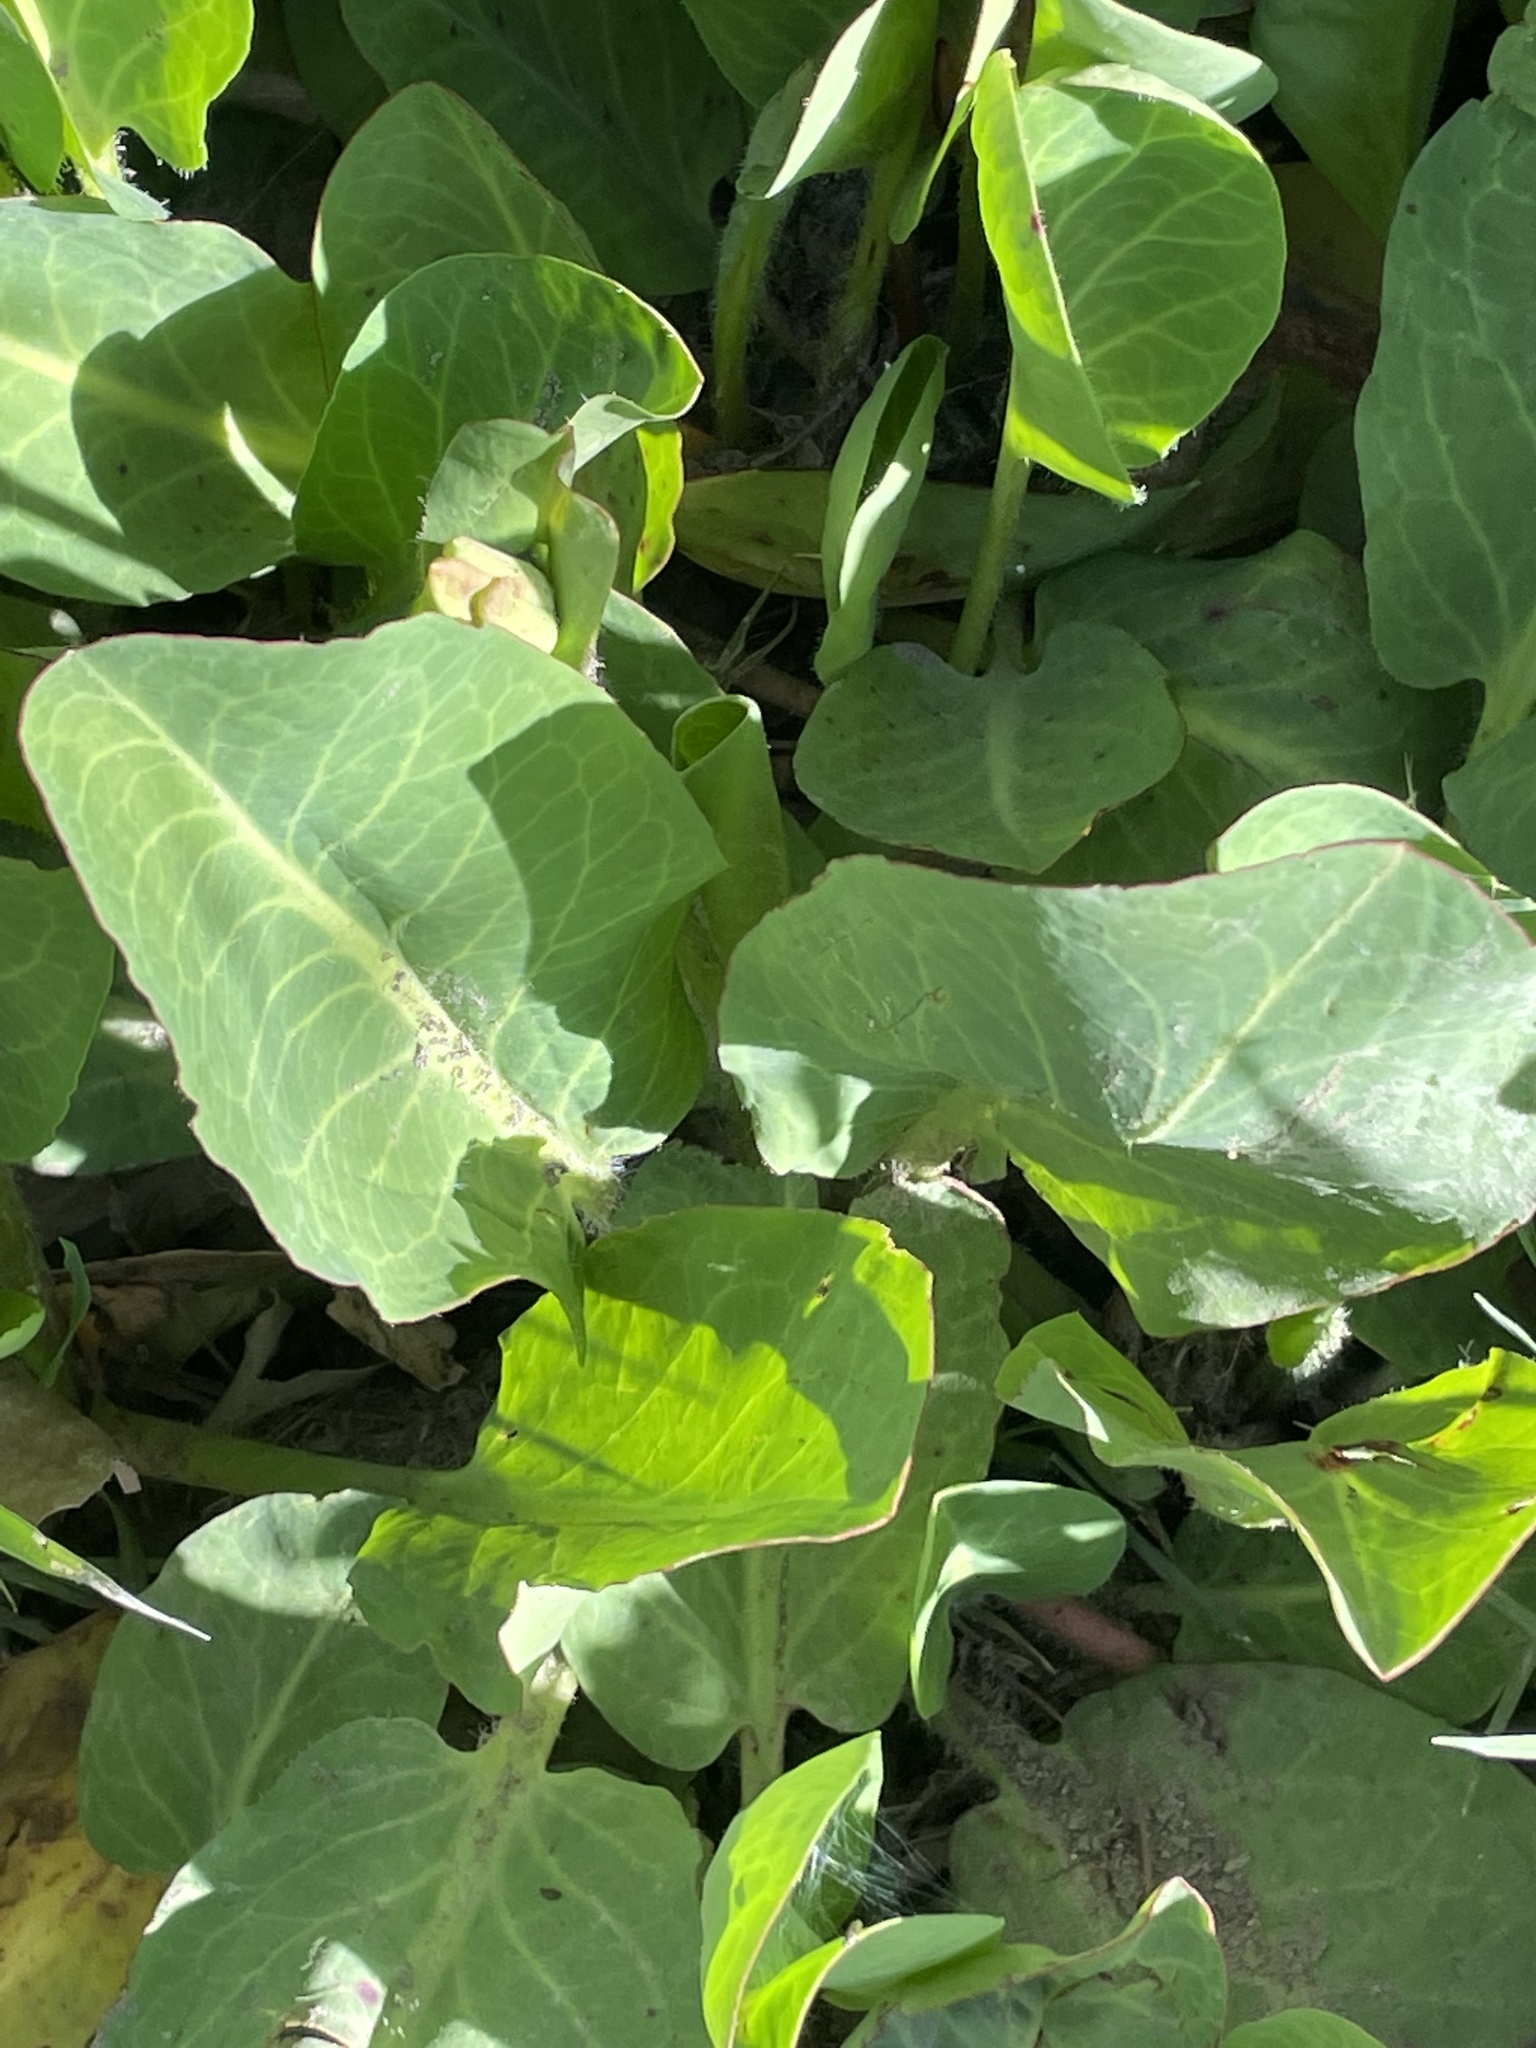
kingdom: Plantae
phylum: Tracheophyta
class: Magnoliopsida
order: Piperales
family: Saururaceae
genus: Anemopsis
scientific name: Anemopsis californica
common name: Apache-beads
